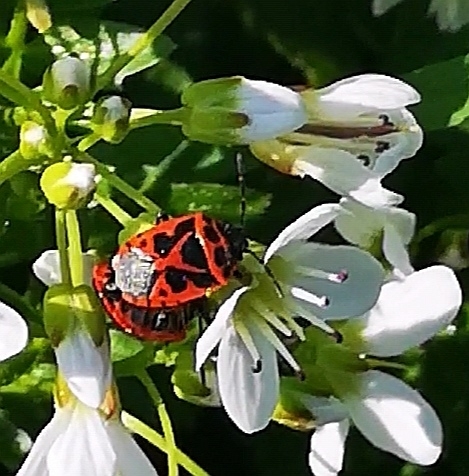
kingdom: Animalia
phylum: Arthropoda
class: Insecta
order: Hemiptera
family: Pentatomidae
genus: Eurydema
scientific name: Eurydema dominulus
